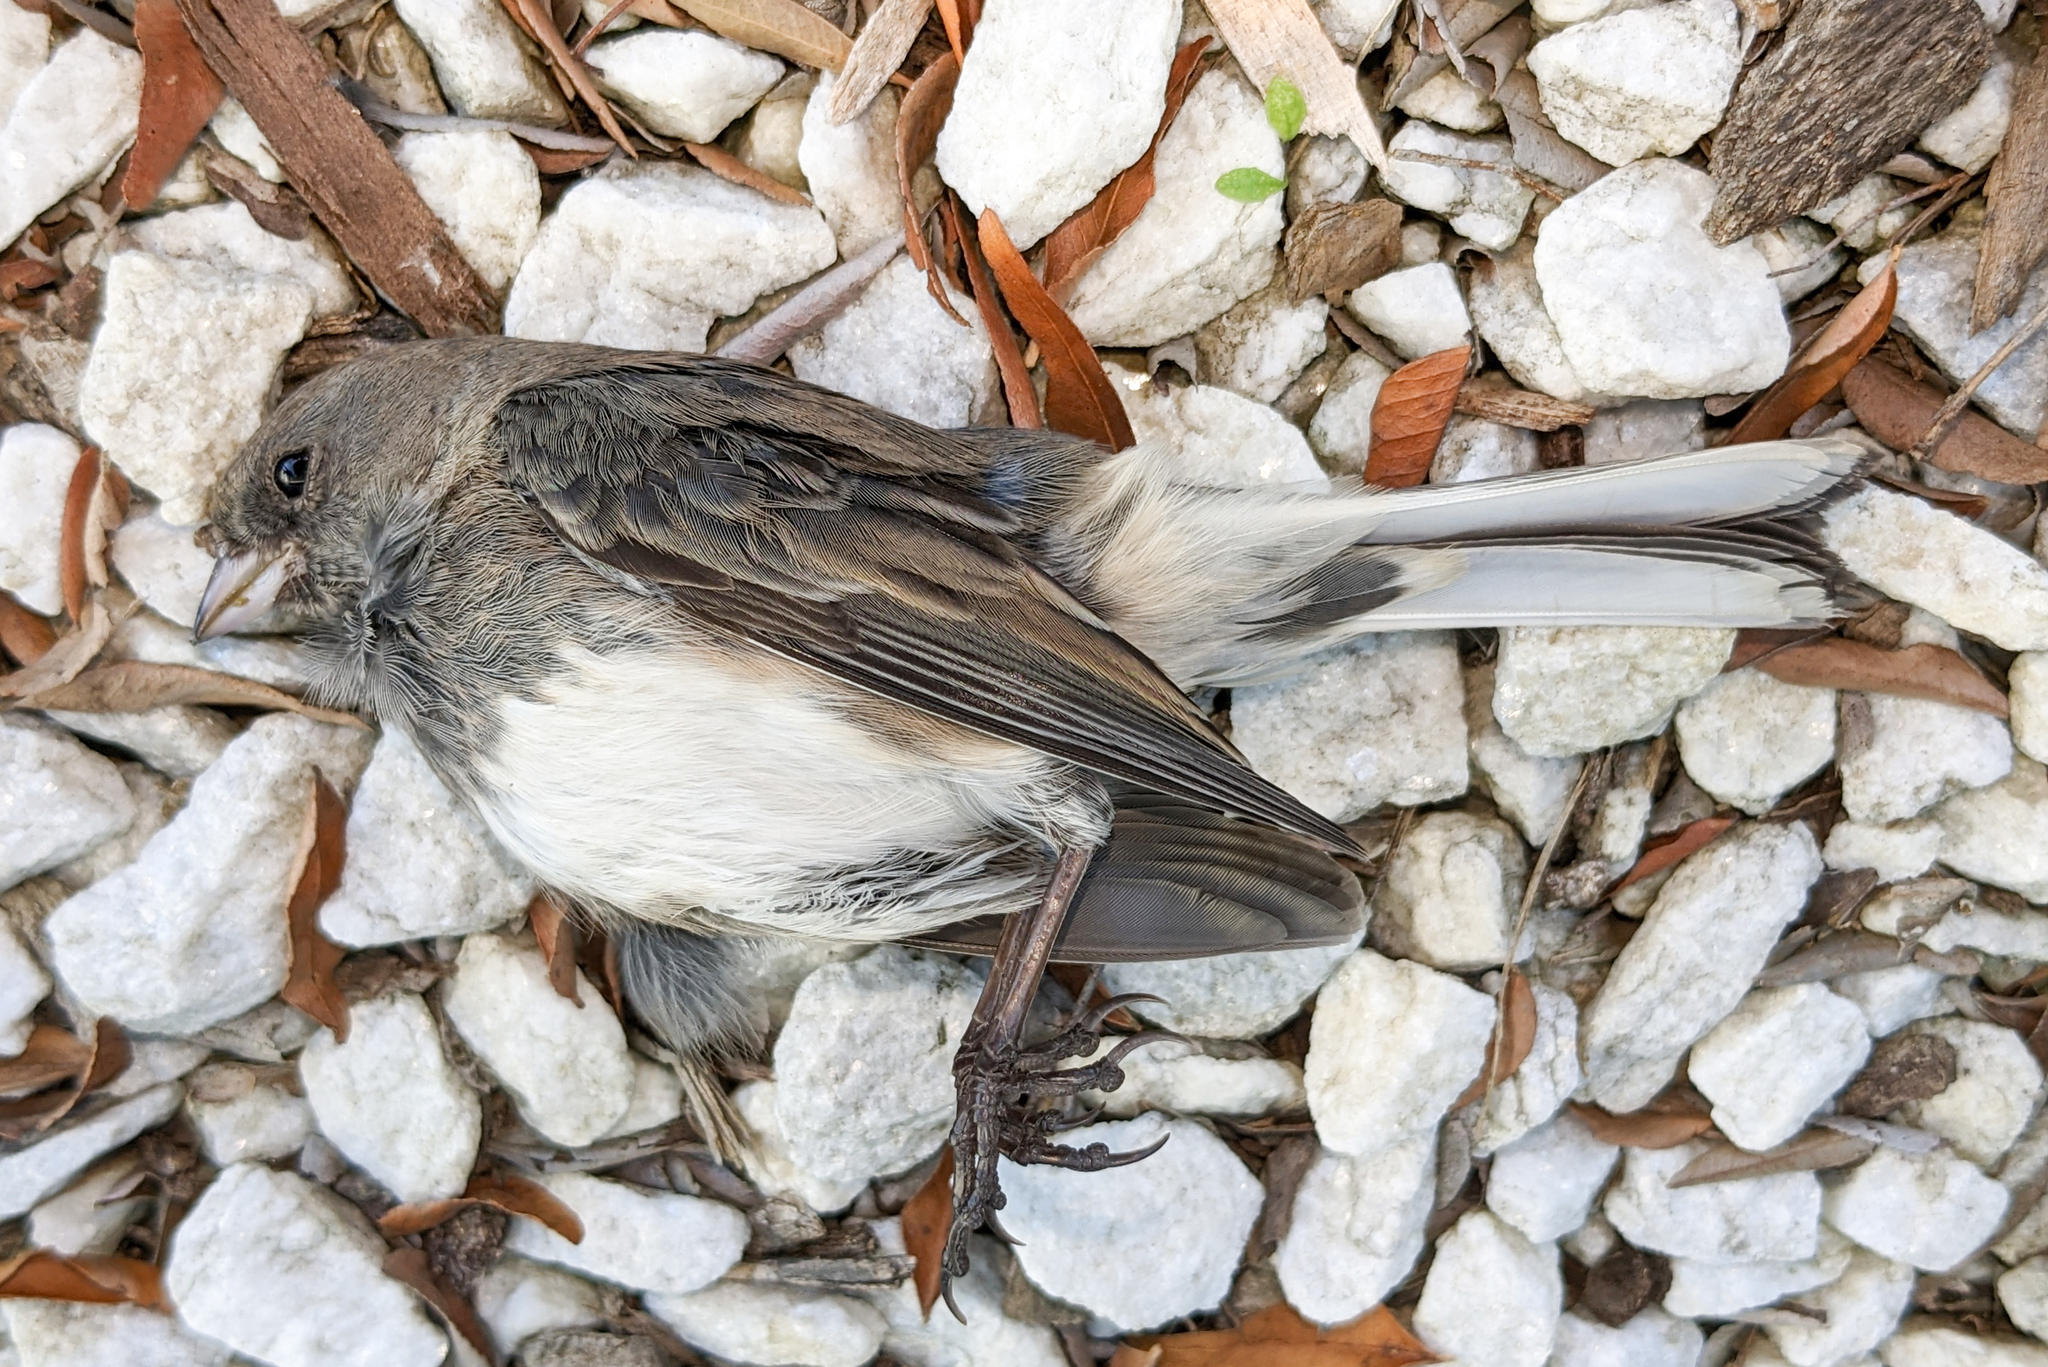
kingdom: Animalia
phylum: Chordata
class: Aves
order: Passeriformes
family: Passerellidae
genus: Junco
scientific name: Junco hyemalis
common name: Dark-eyed junco
